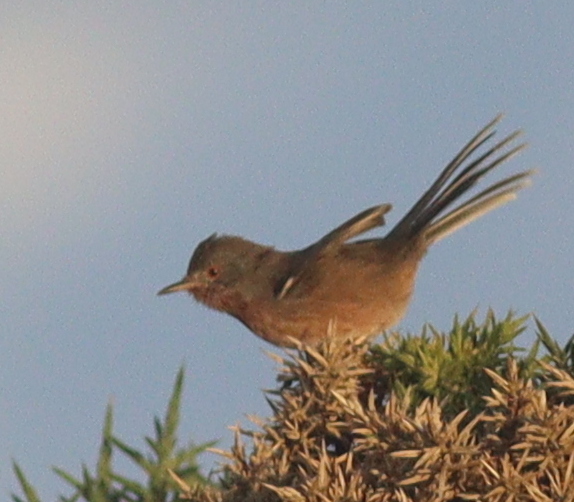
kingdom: Animalia
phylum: Chordata
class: Aves
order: Passeriformes
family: Sylviidae
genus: Sylvia
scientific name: Sylvia undata
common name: Dartford warbler
